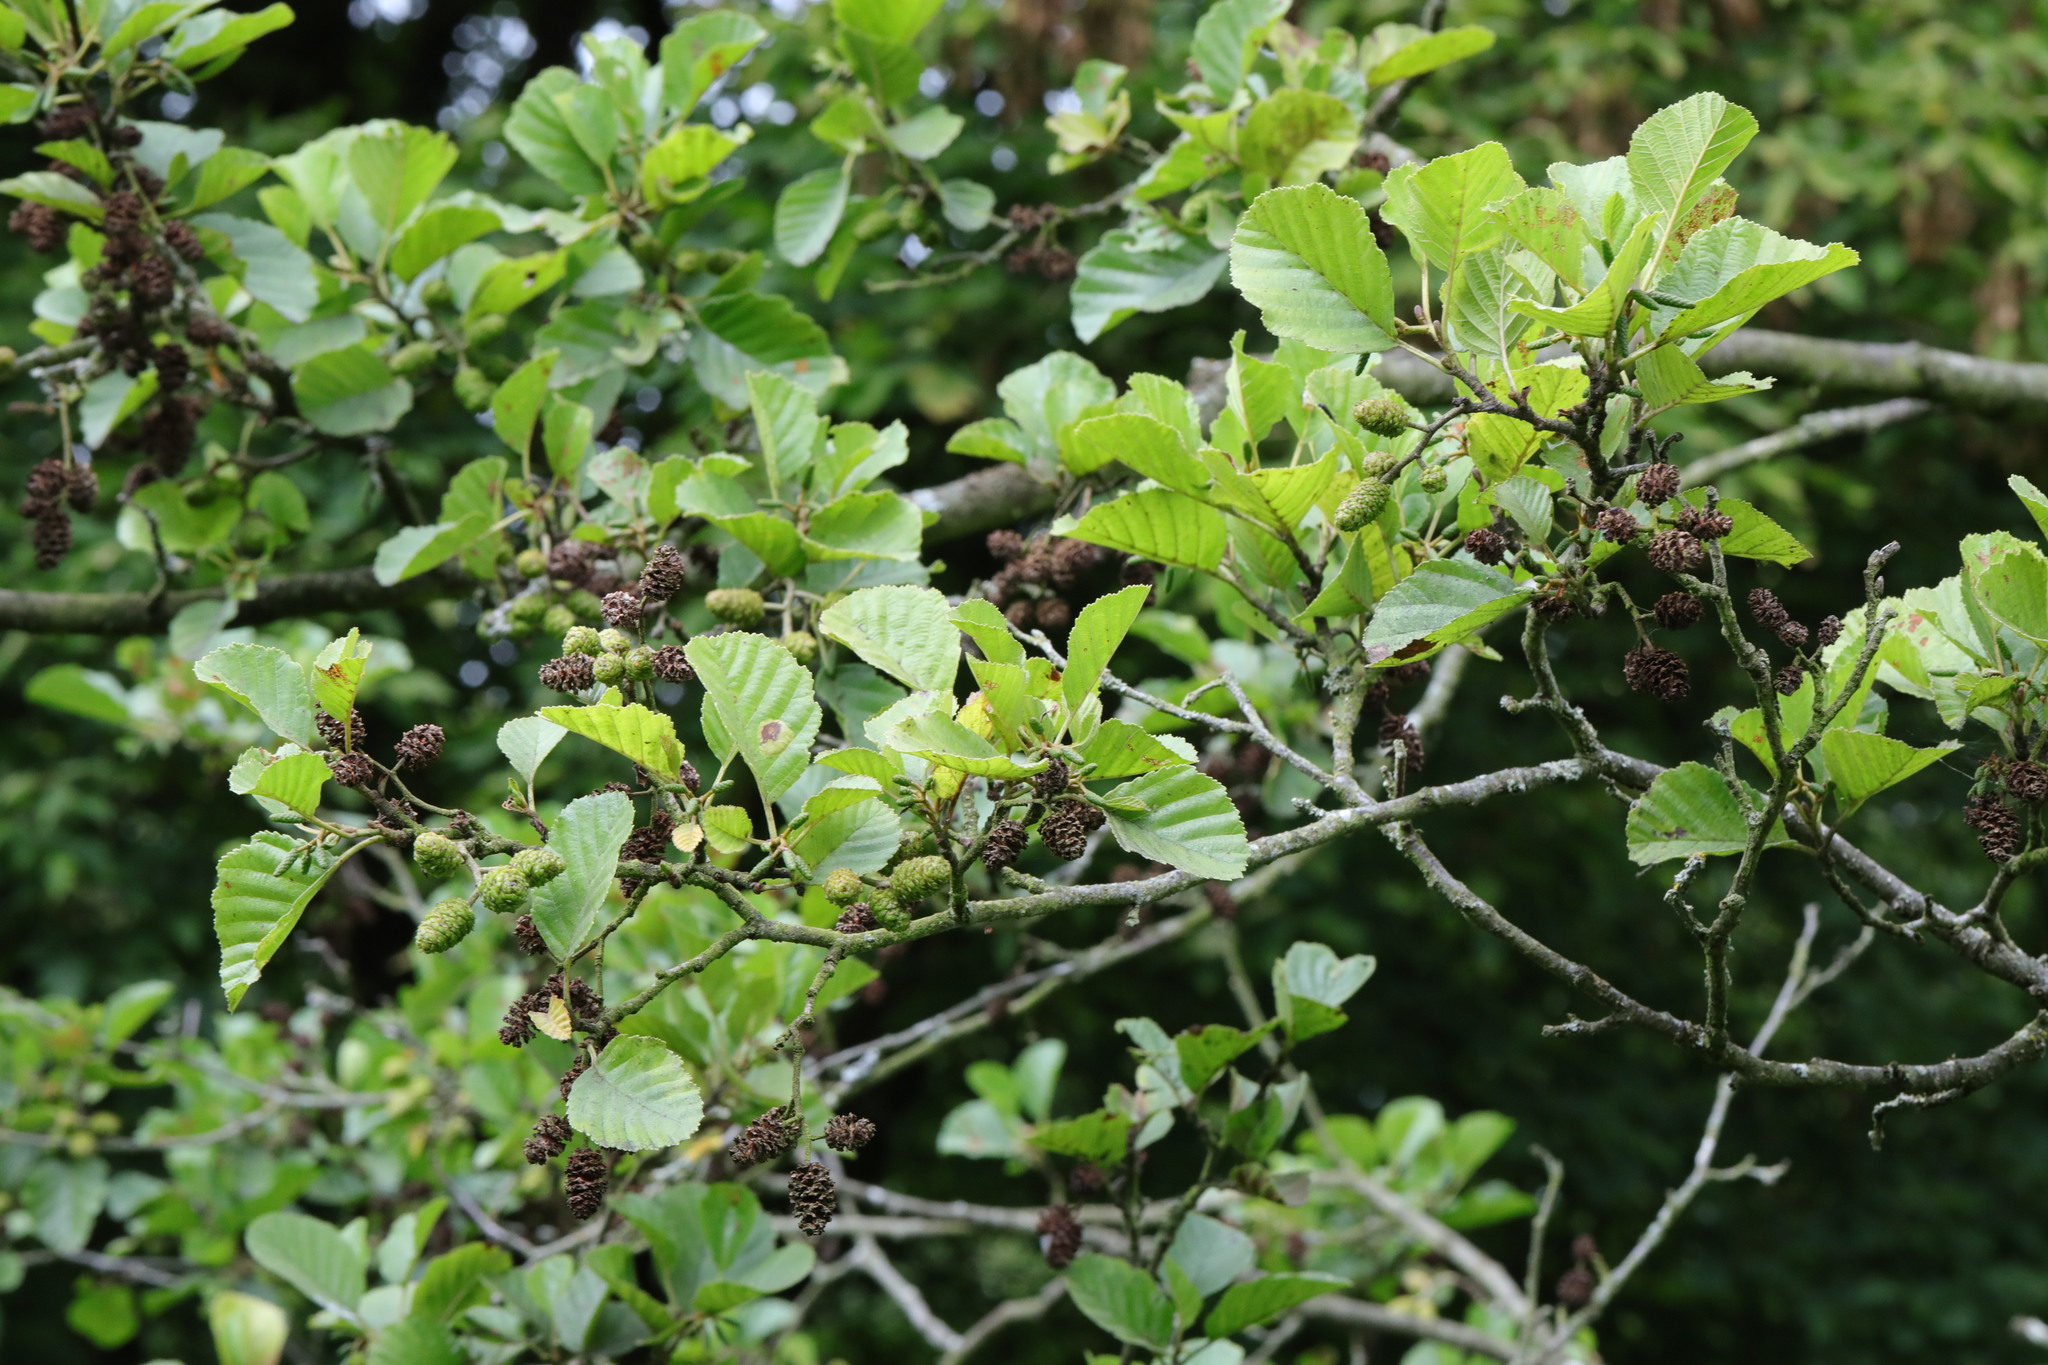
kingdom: Plantae
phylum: Tracheophyta
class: Magnoliopsida
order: Fagales
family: Betulaceae
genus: Alnus
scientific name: Alnus glutinosa
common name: Black alder
